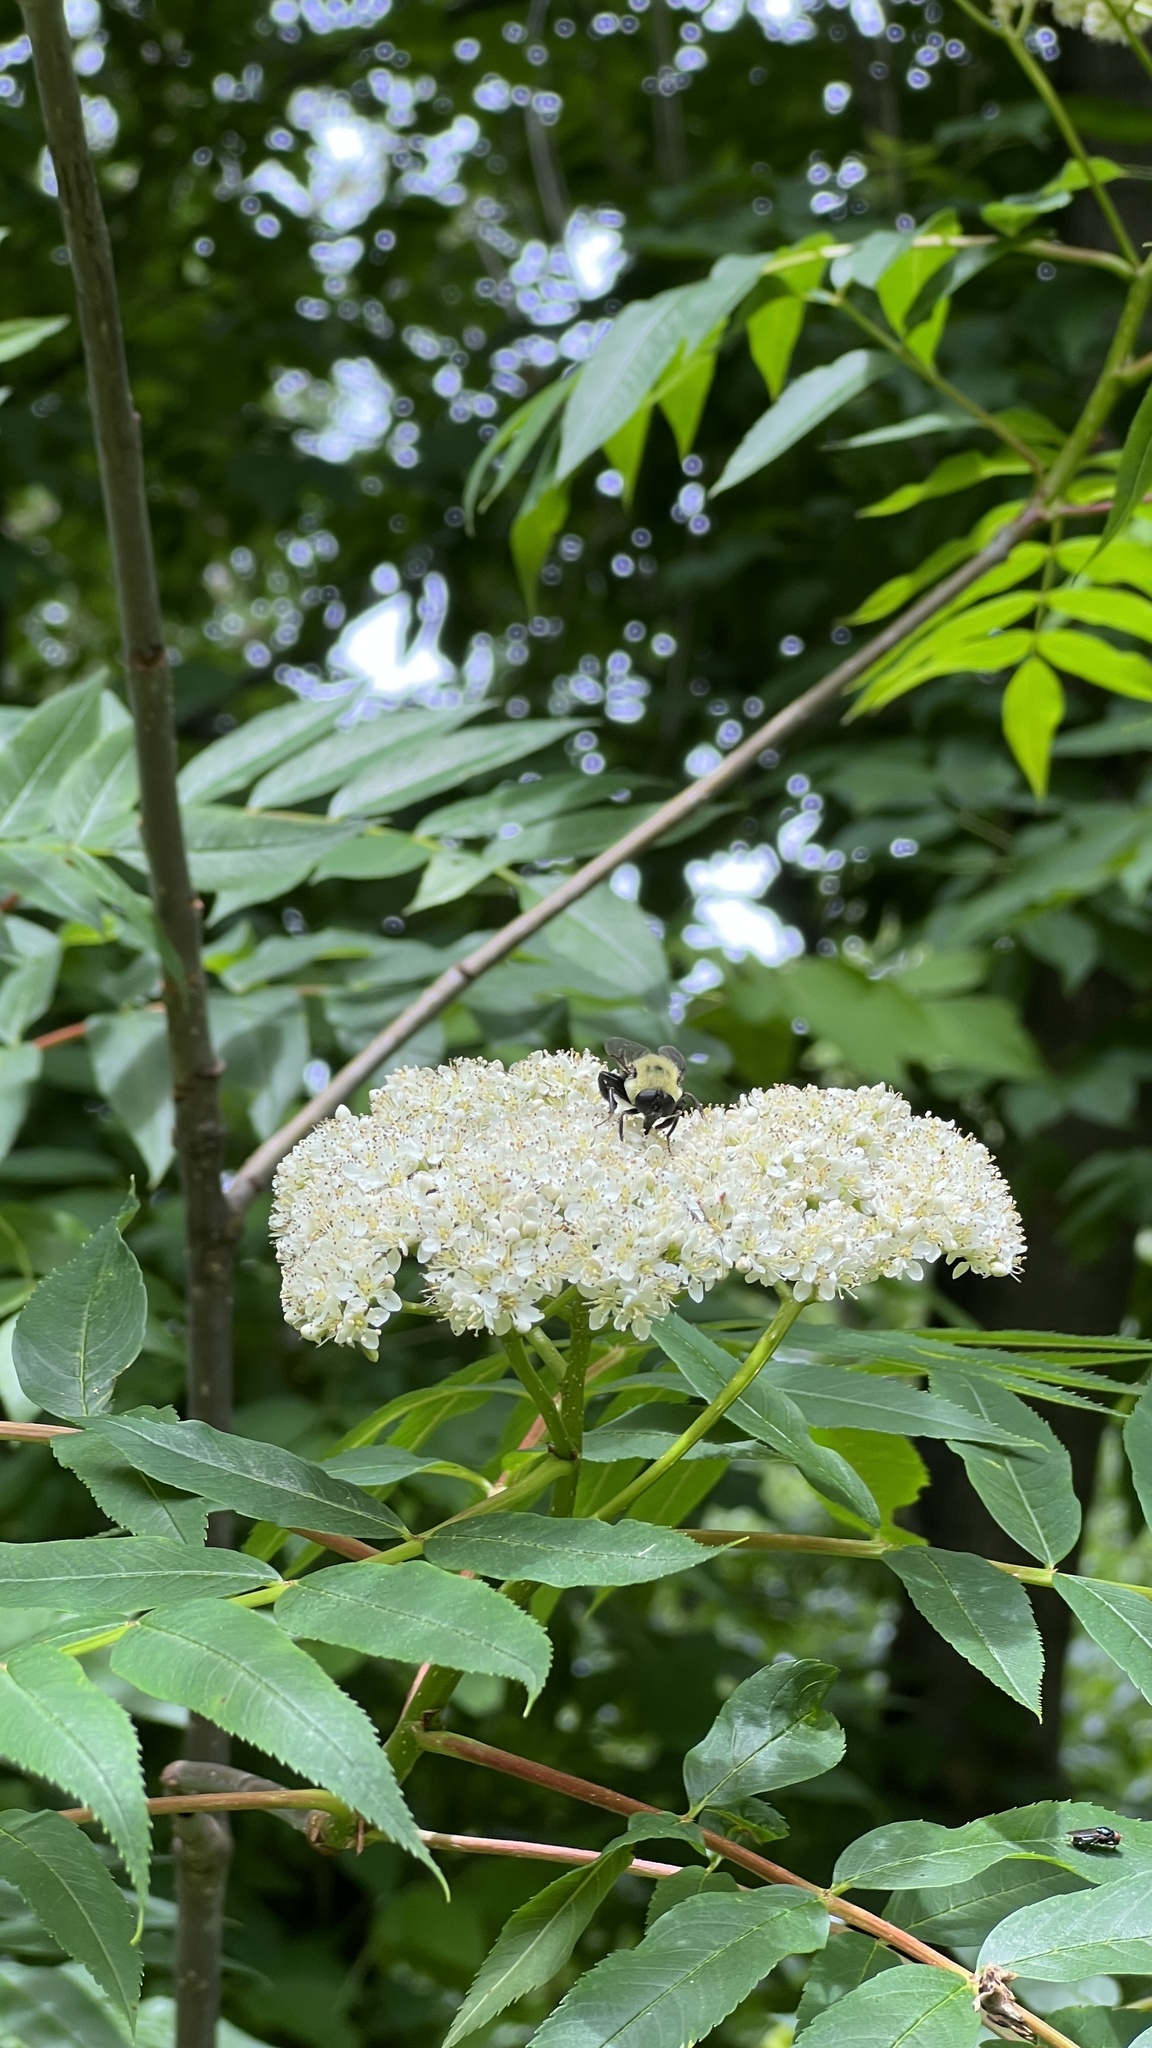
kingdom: Animalia
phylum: Arthropoda
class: Insecta
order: Diptera
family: Syrphidae
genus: Imatisma
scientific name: Imatisma posticata
